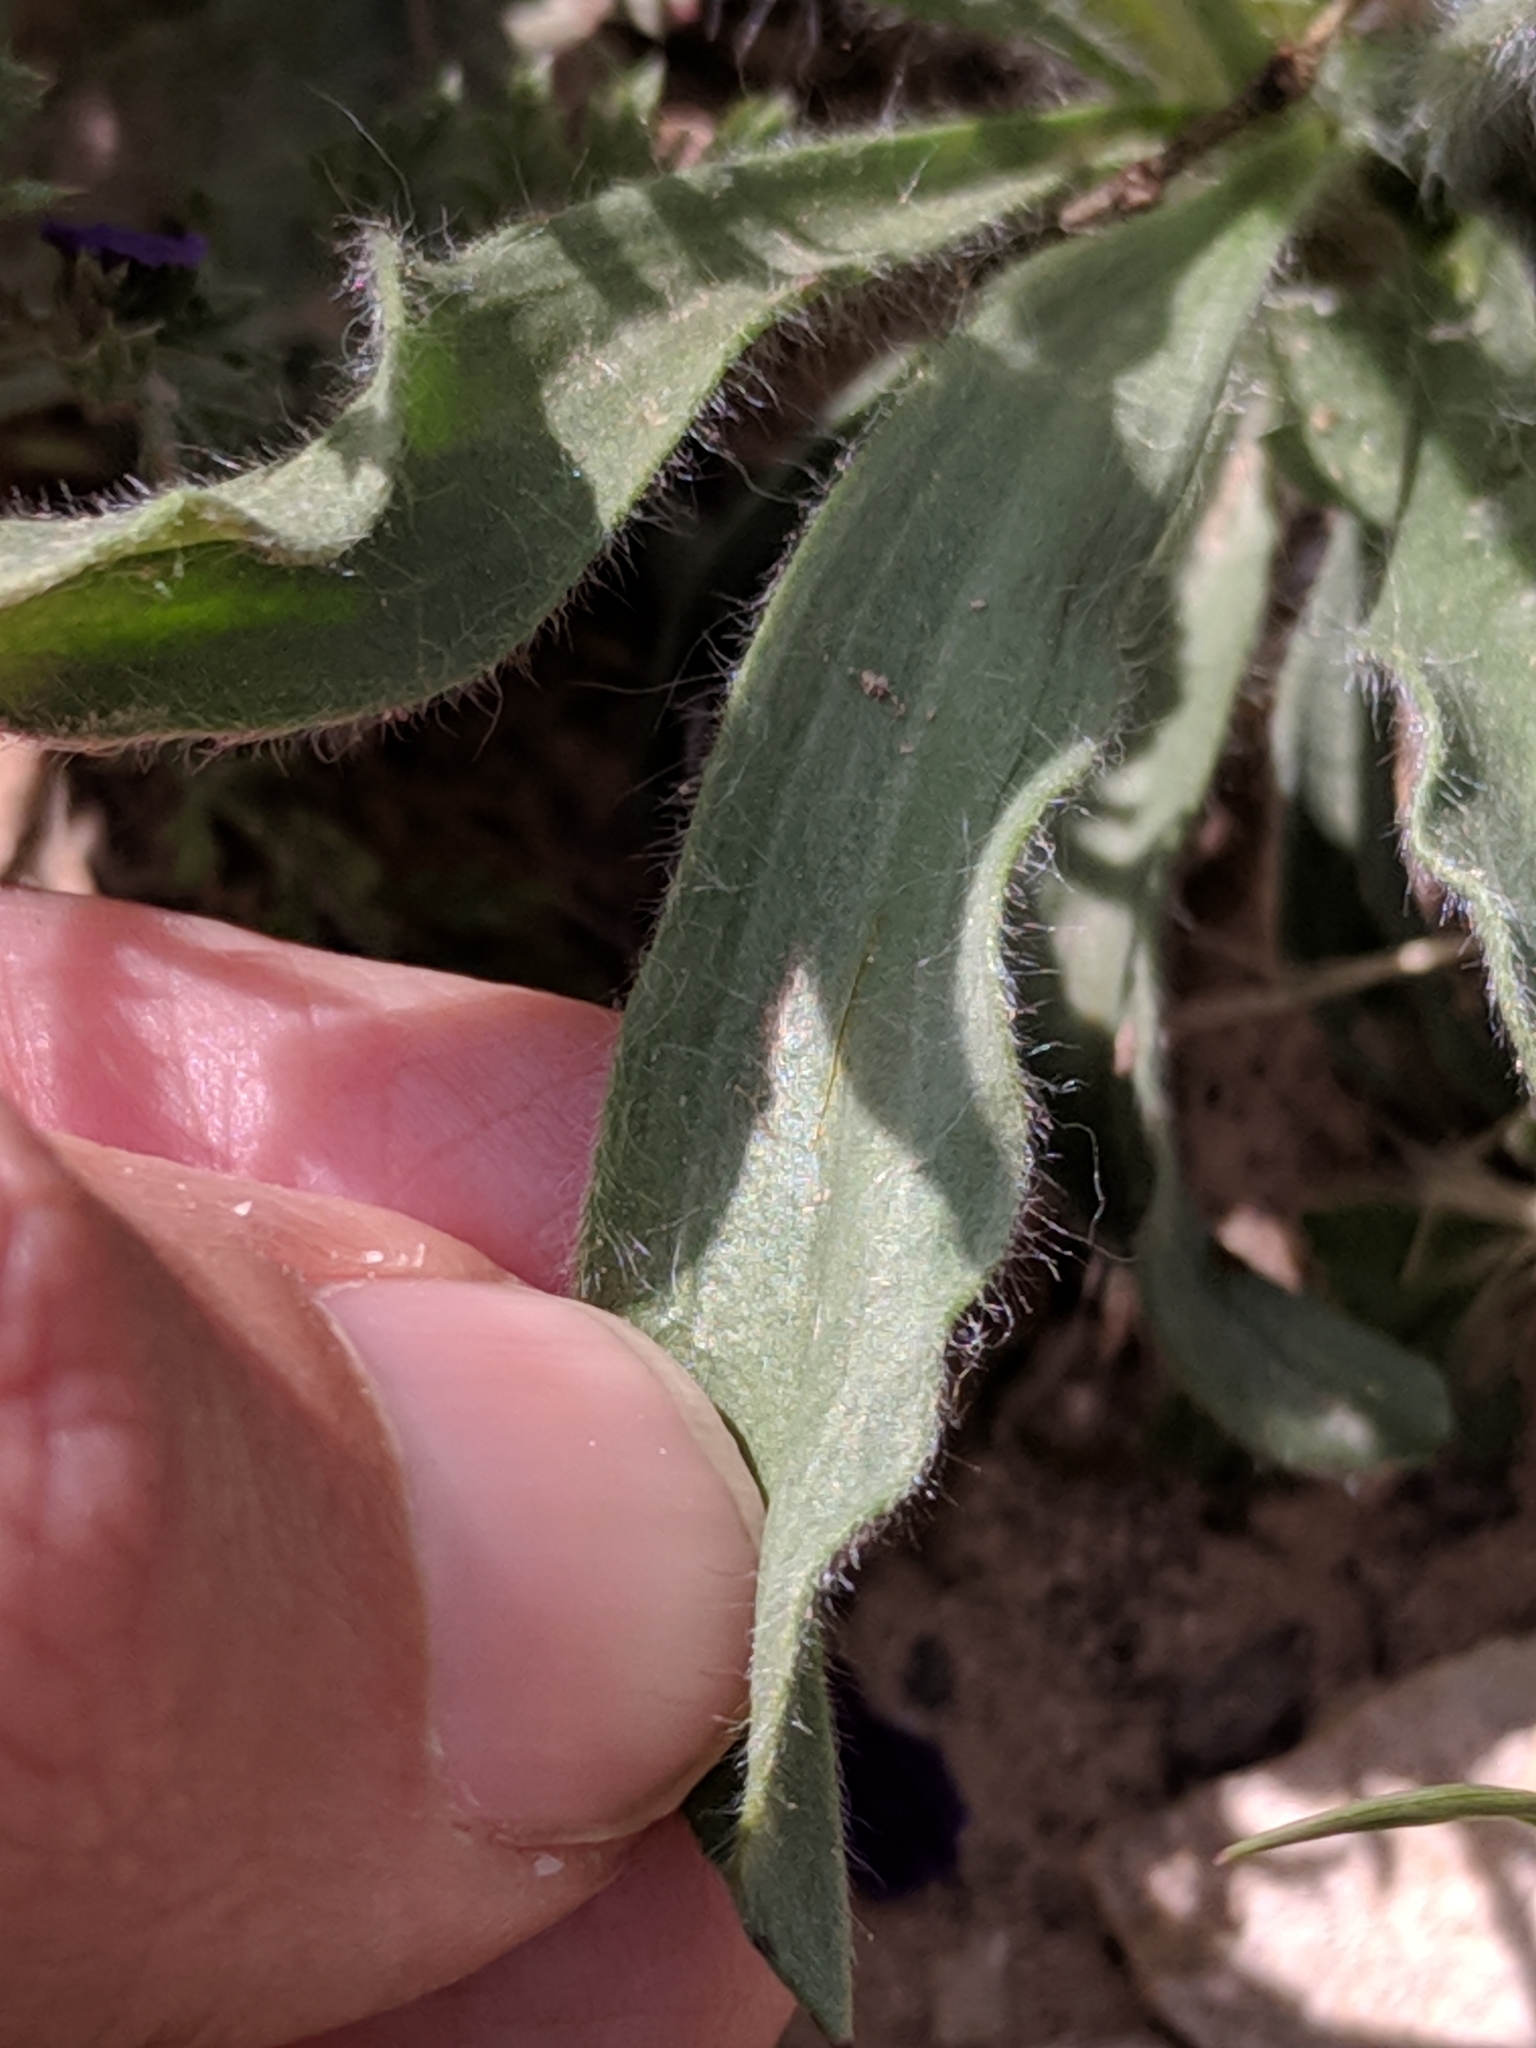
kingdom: Plantae
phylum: Tracheophyta
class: Magnoliopsida
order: Lamiales
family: Plantaginaceae
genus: Plantago
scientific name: Plantago helleri
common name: Heller's plantain
